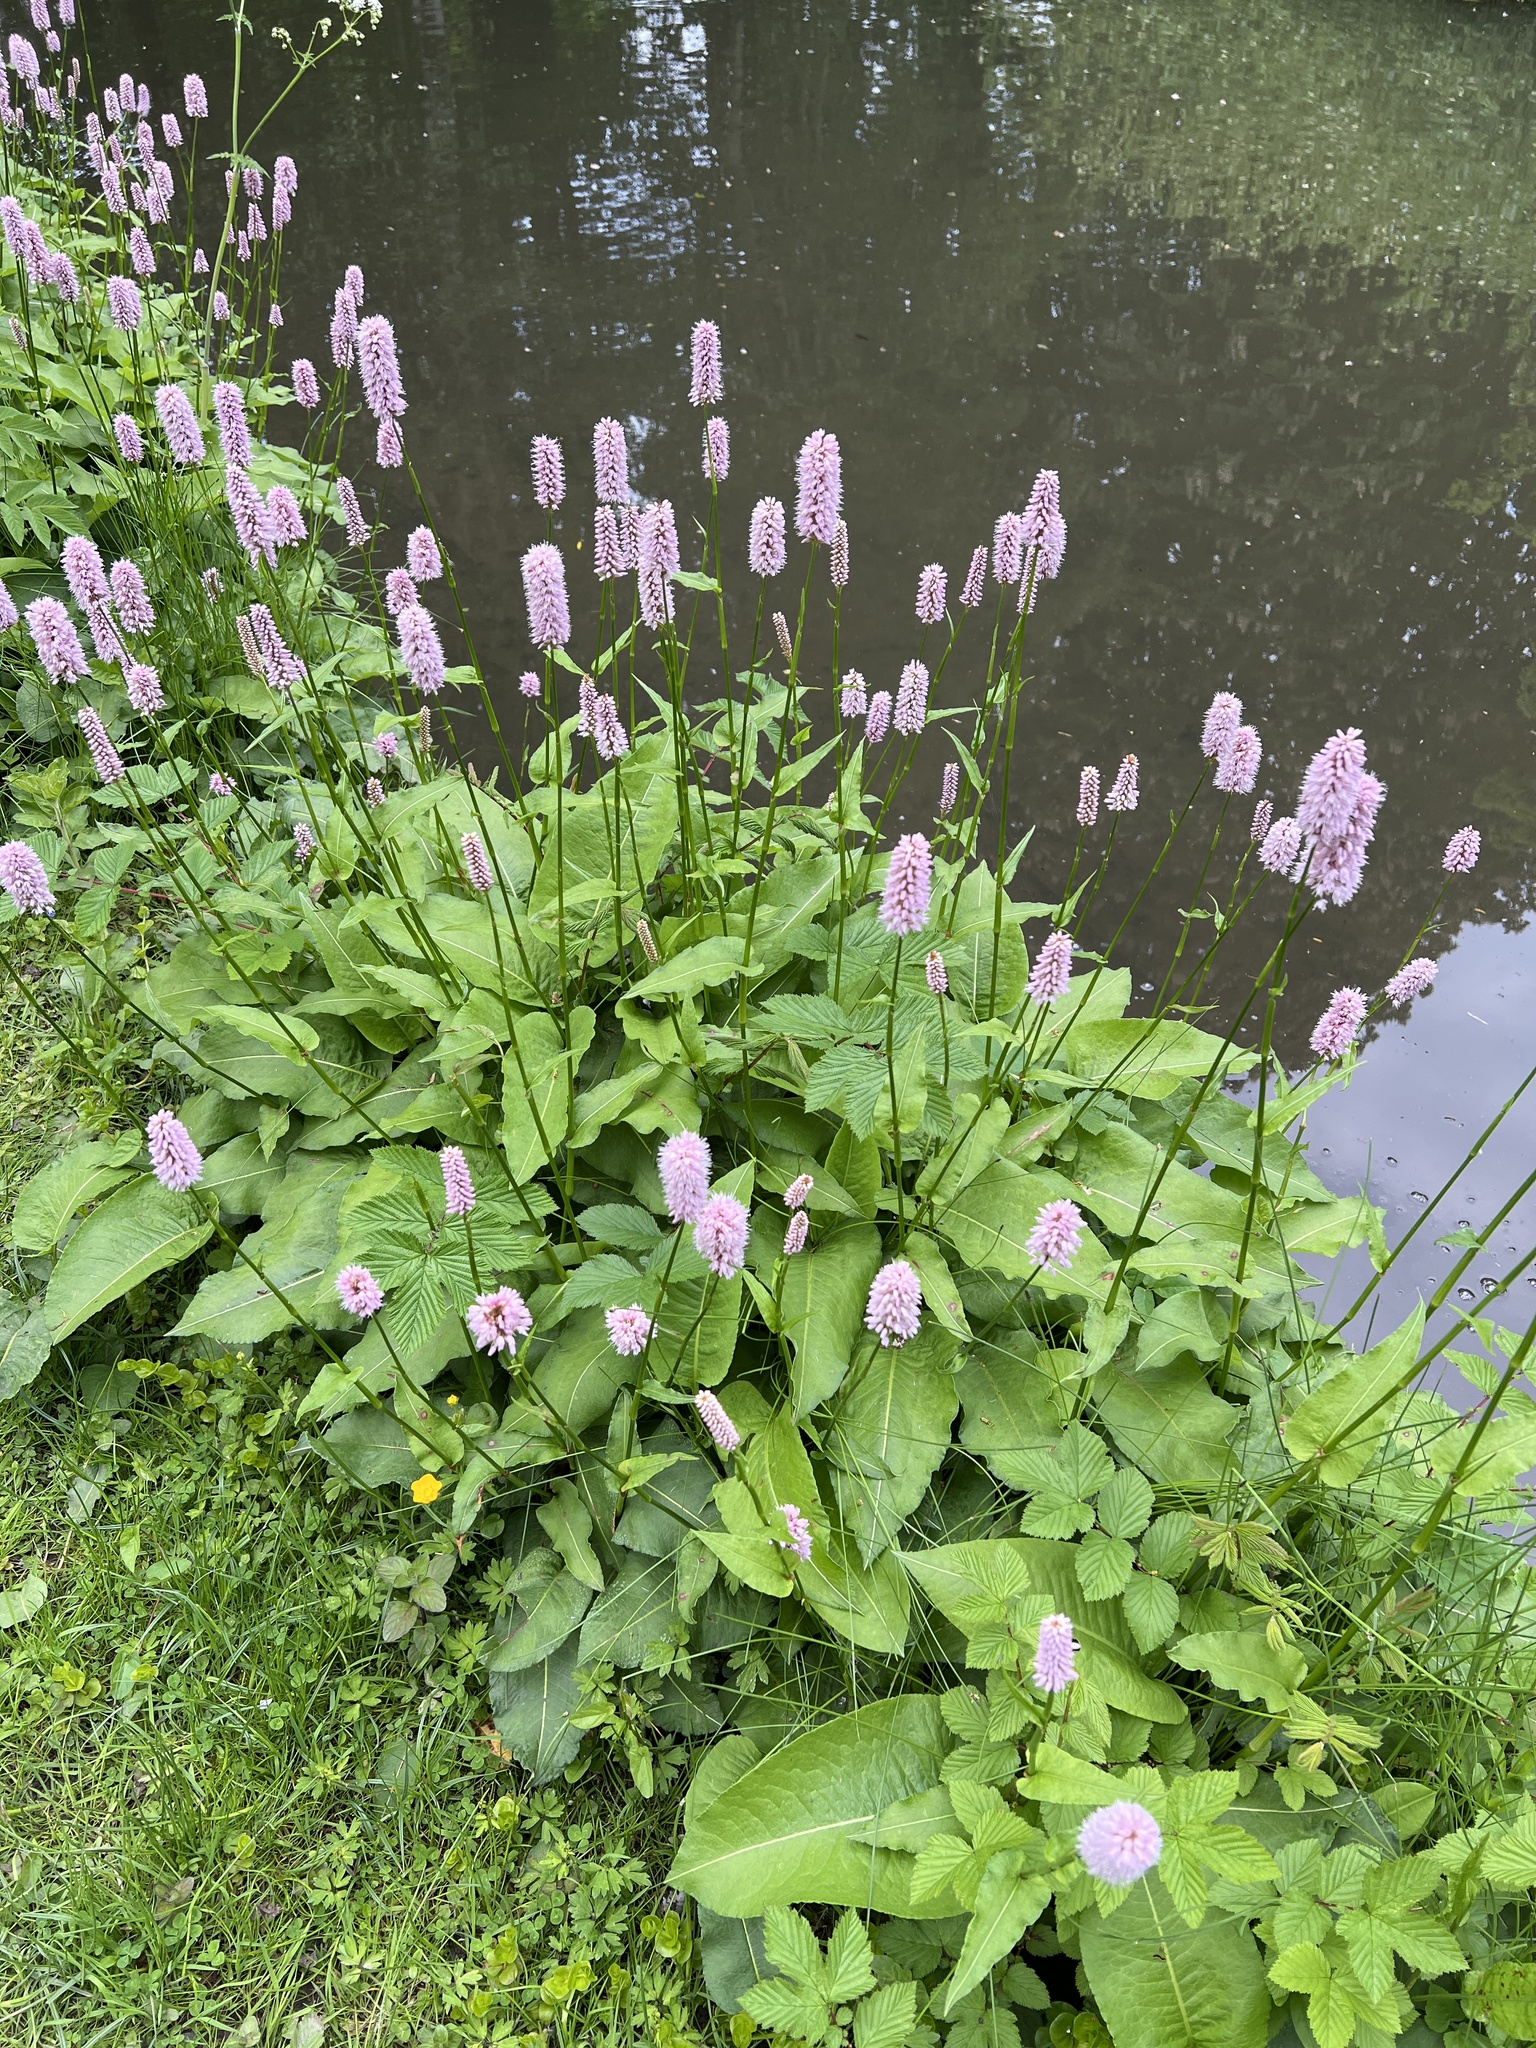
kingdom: Plantae
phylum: Tracheophyta
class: Magnoliopsida
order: Caryophyllales
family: Polygonaceae
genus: Bistorta
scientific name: Bistorta officinalis
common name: Common bistort
